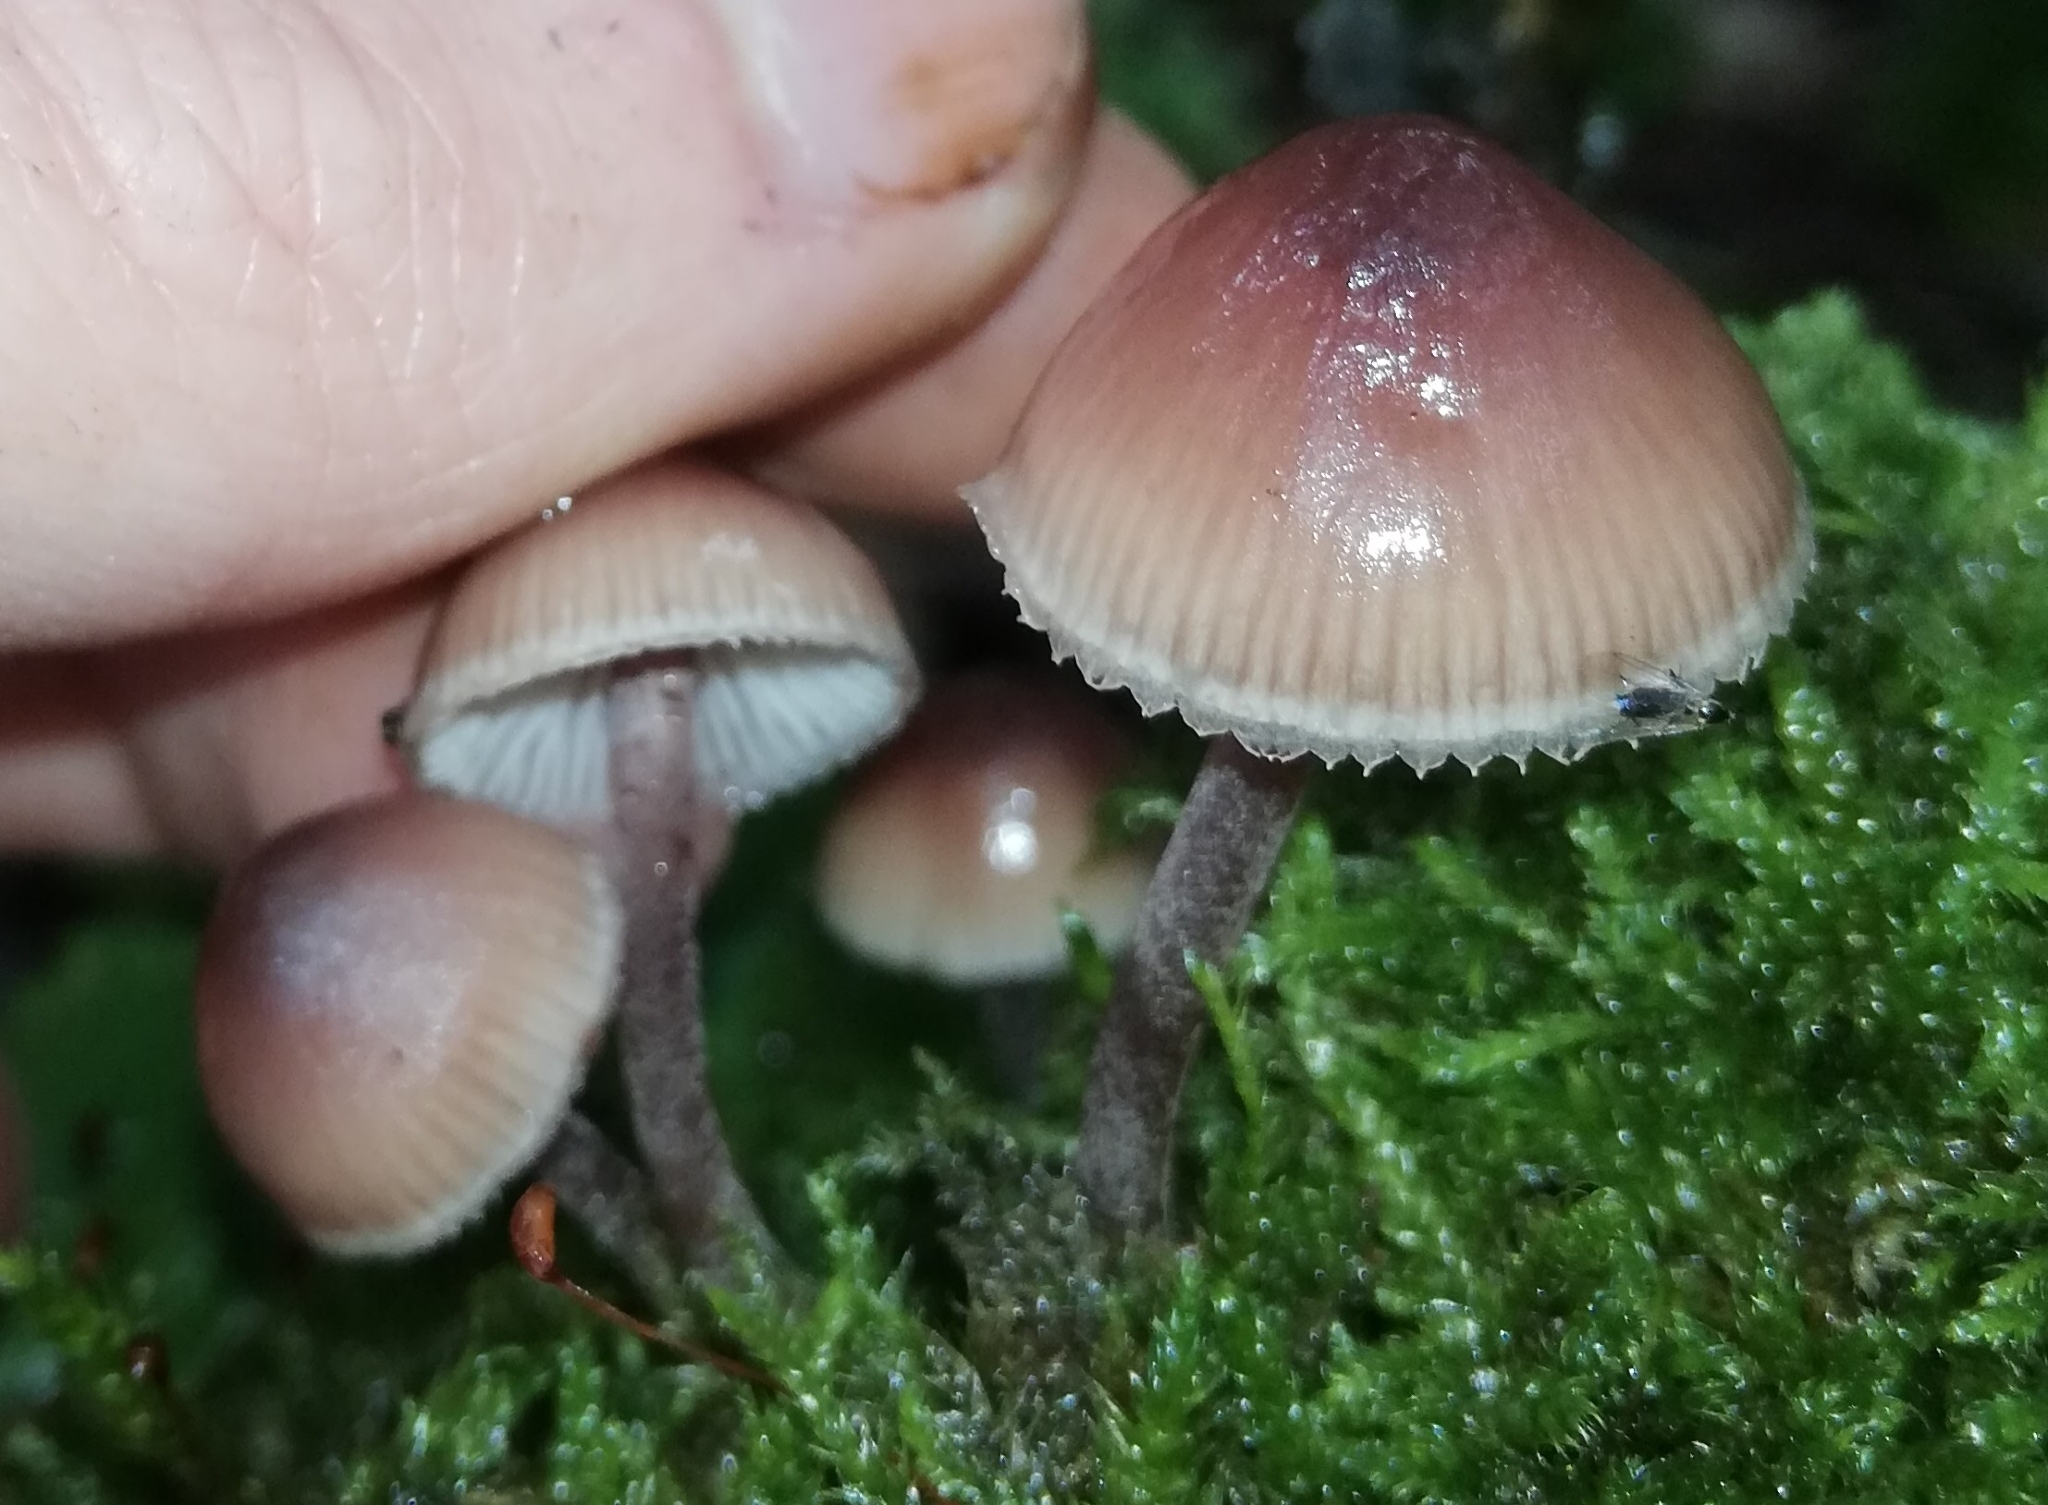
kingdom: Fungi
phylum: Basidiomycota
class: Agaricomycetes
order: Agaricales
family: Mycenaceae
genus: Mycena
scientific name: Mycena haematopus
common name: Burgundydrop bonnet
